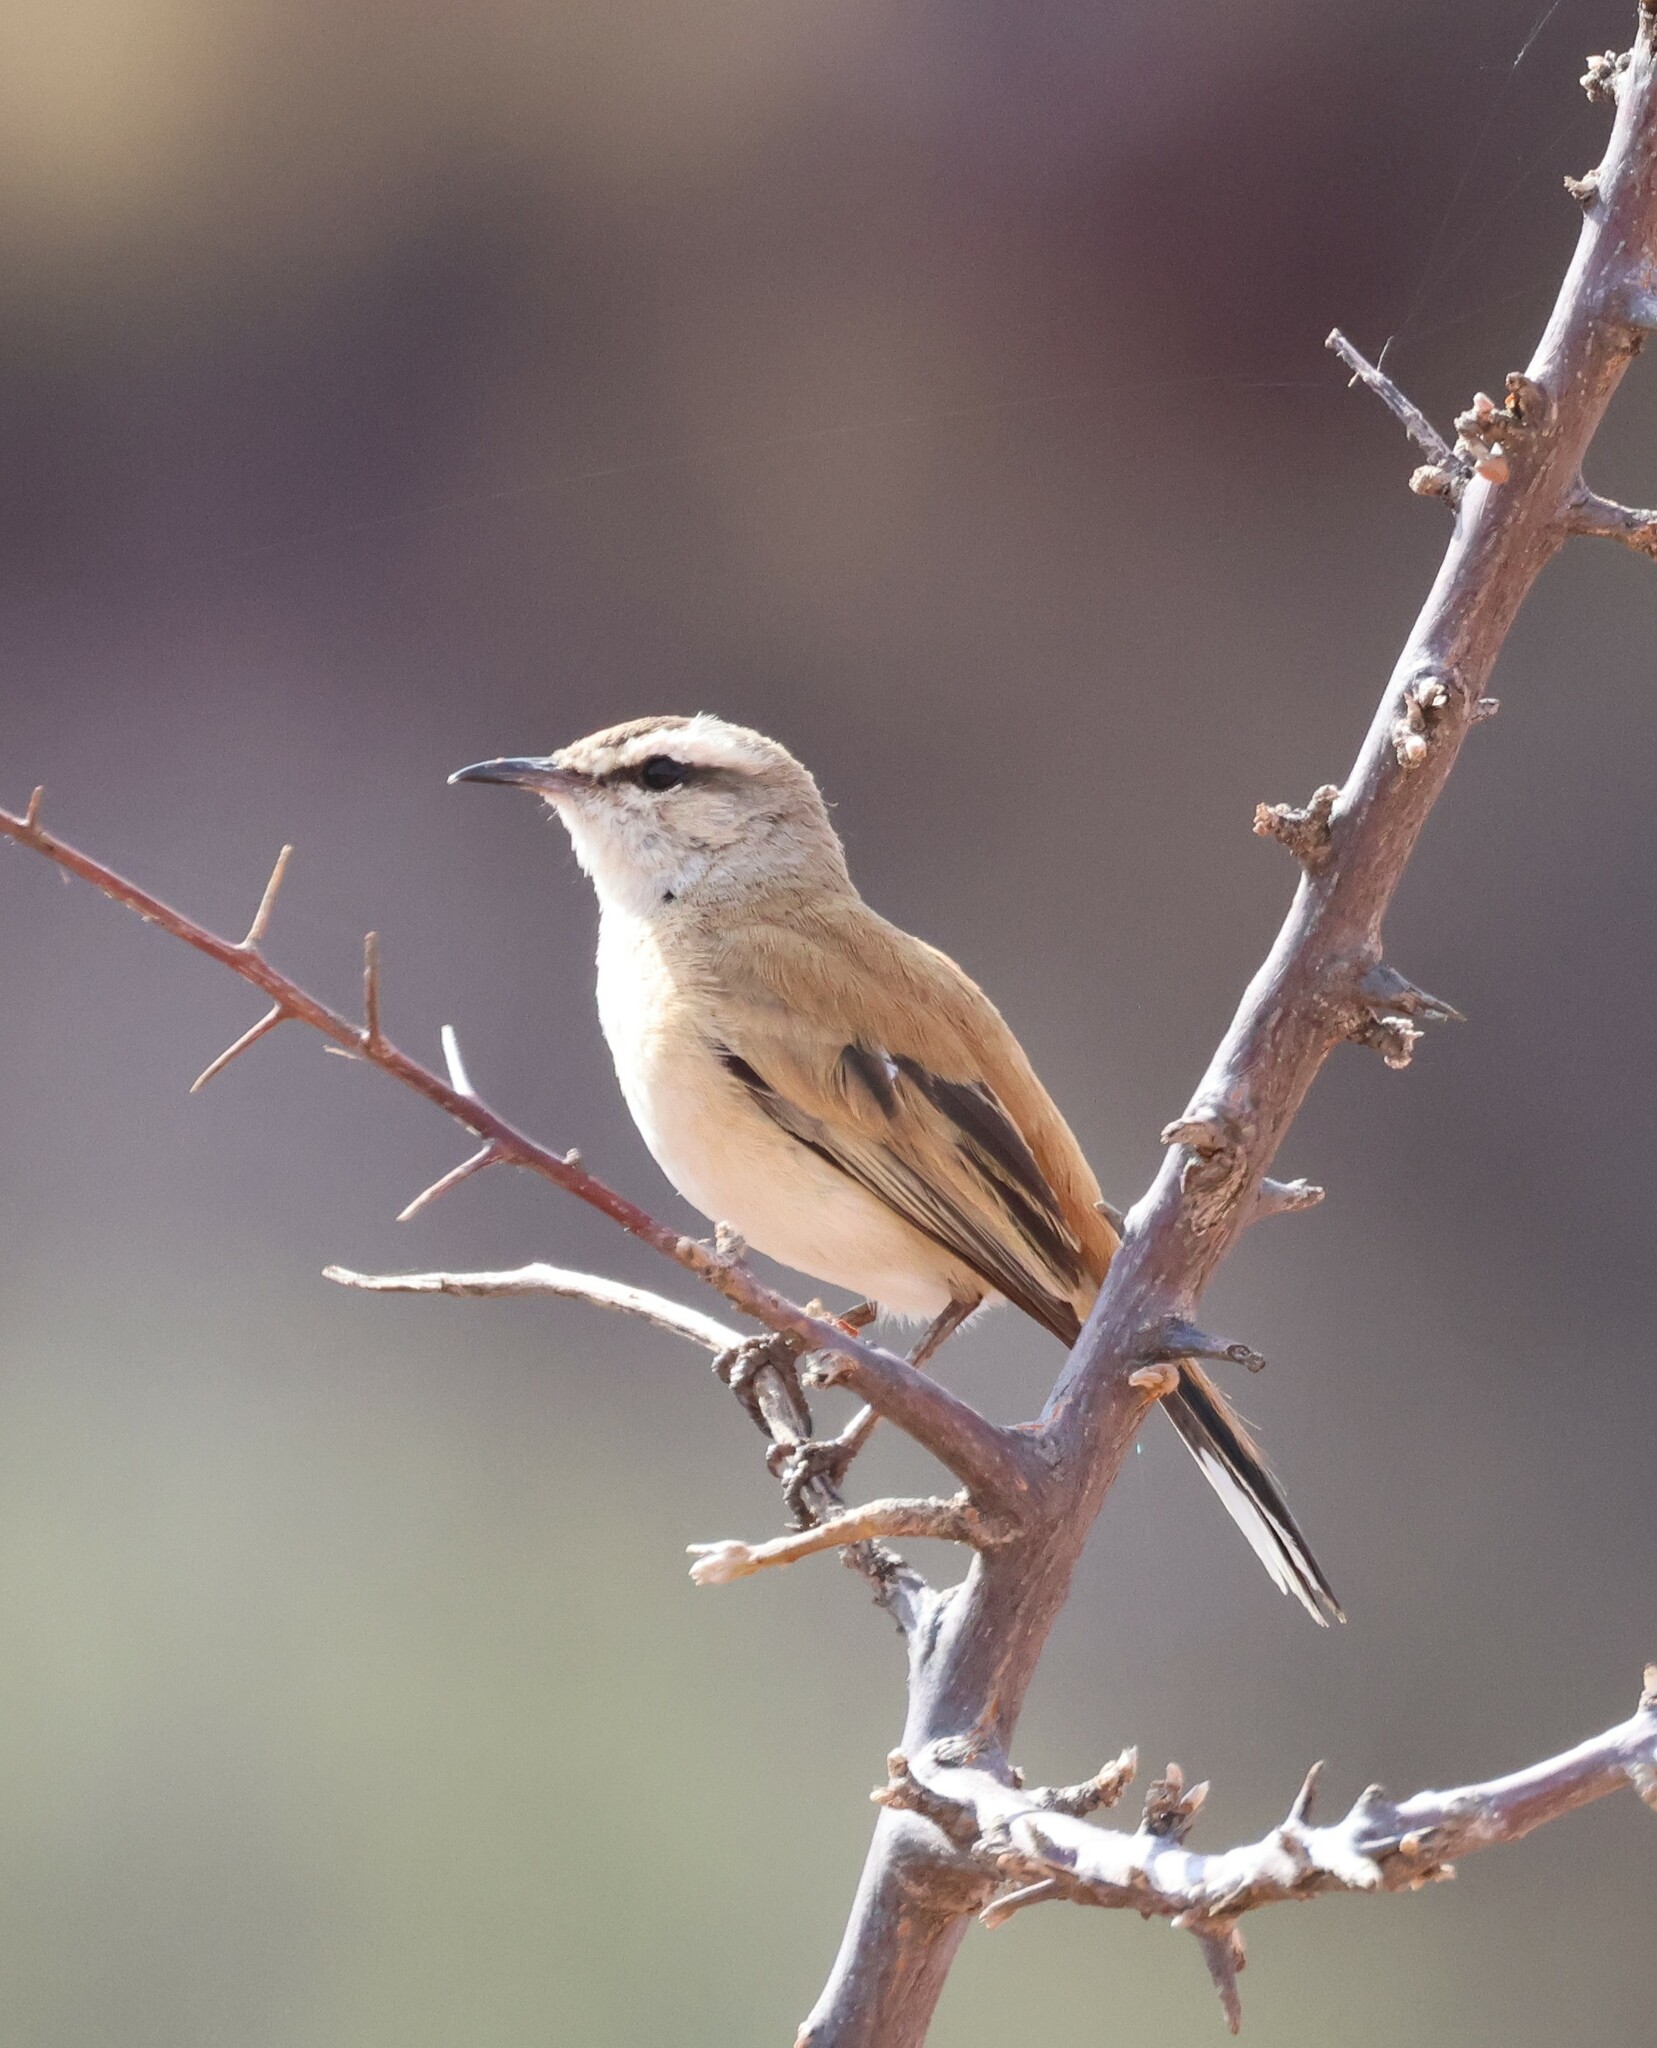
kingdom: Animalia
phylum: Chordata
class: Aves
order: Passeriformes
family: Muscicapidae
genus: Erythropygia
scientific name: Erythropygia paena
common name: Kalahari scrub robin
